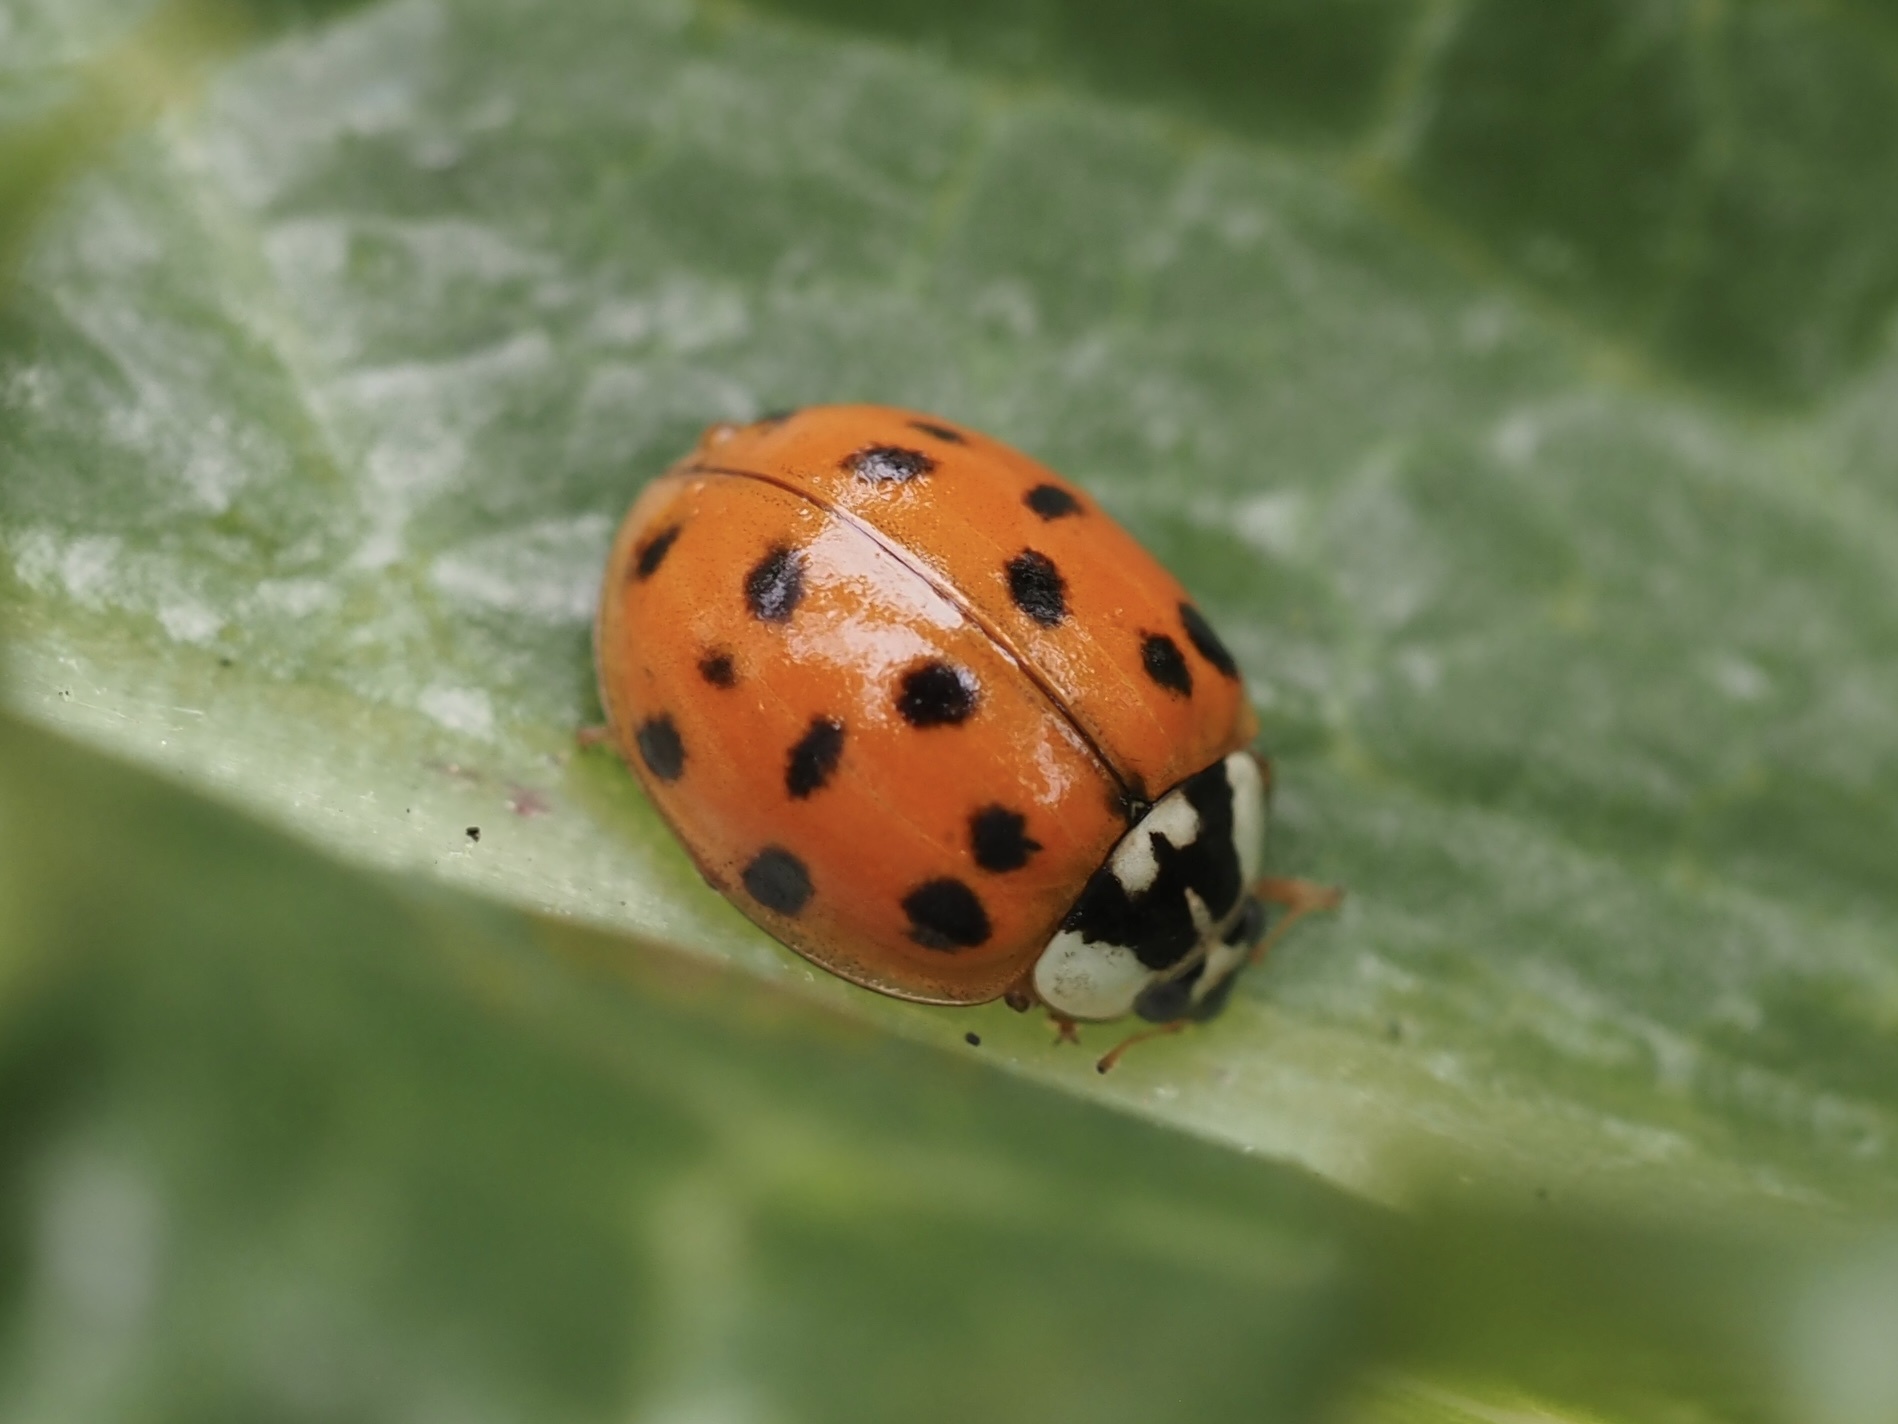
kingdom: Animalia
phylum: Arthropoda
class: Insecta
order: Coleoptera
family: Coccinellidae
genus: Harmonia
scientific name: Harmonia axyridis
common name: Harlequin ladybird
